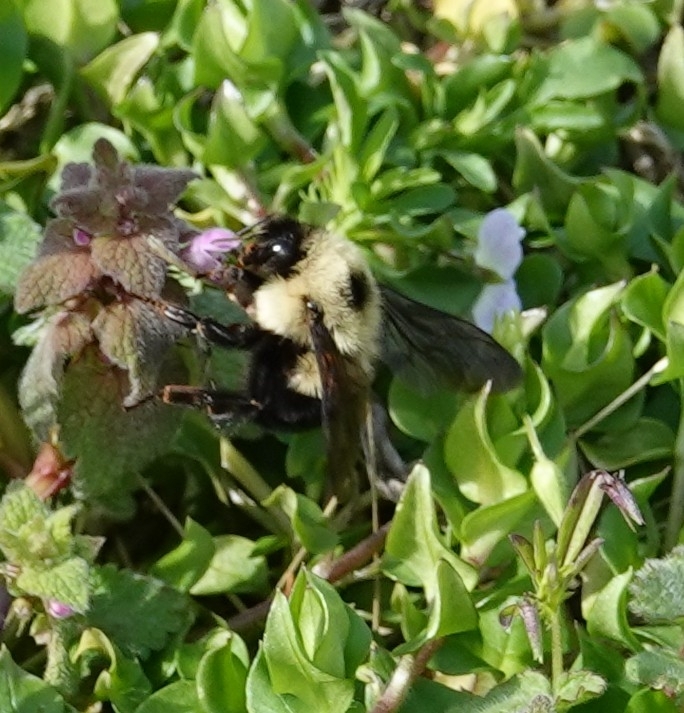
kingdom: Animalia
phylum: Arthropoda
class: Insecta
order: Hymenoptera
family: Apidae
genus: Bombus
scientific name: Bombus bimaculatus
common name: Two-spotted bumble bee
